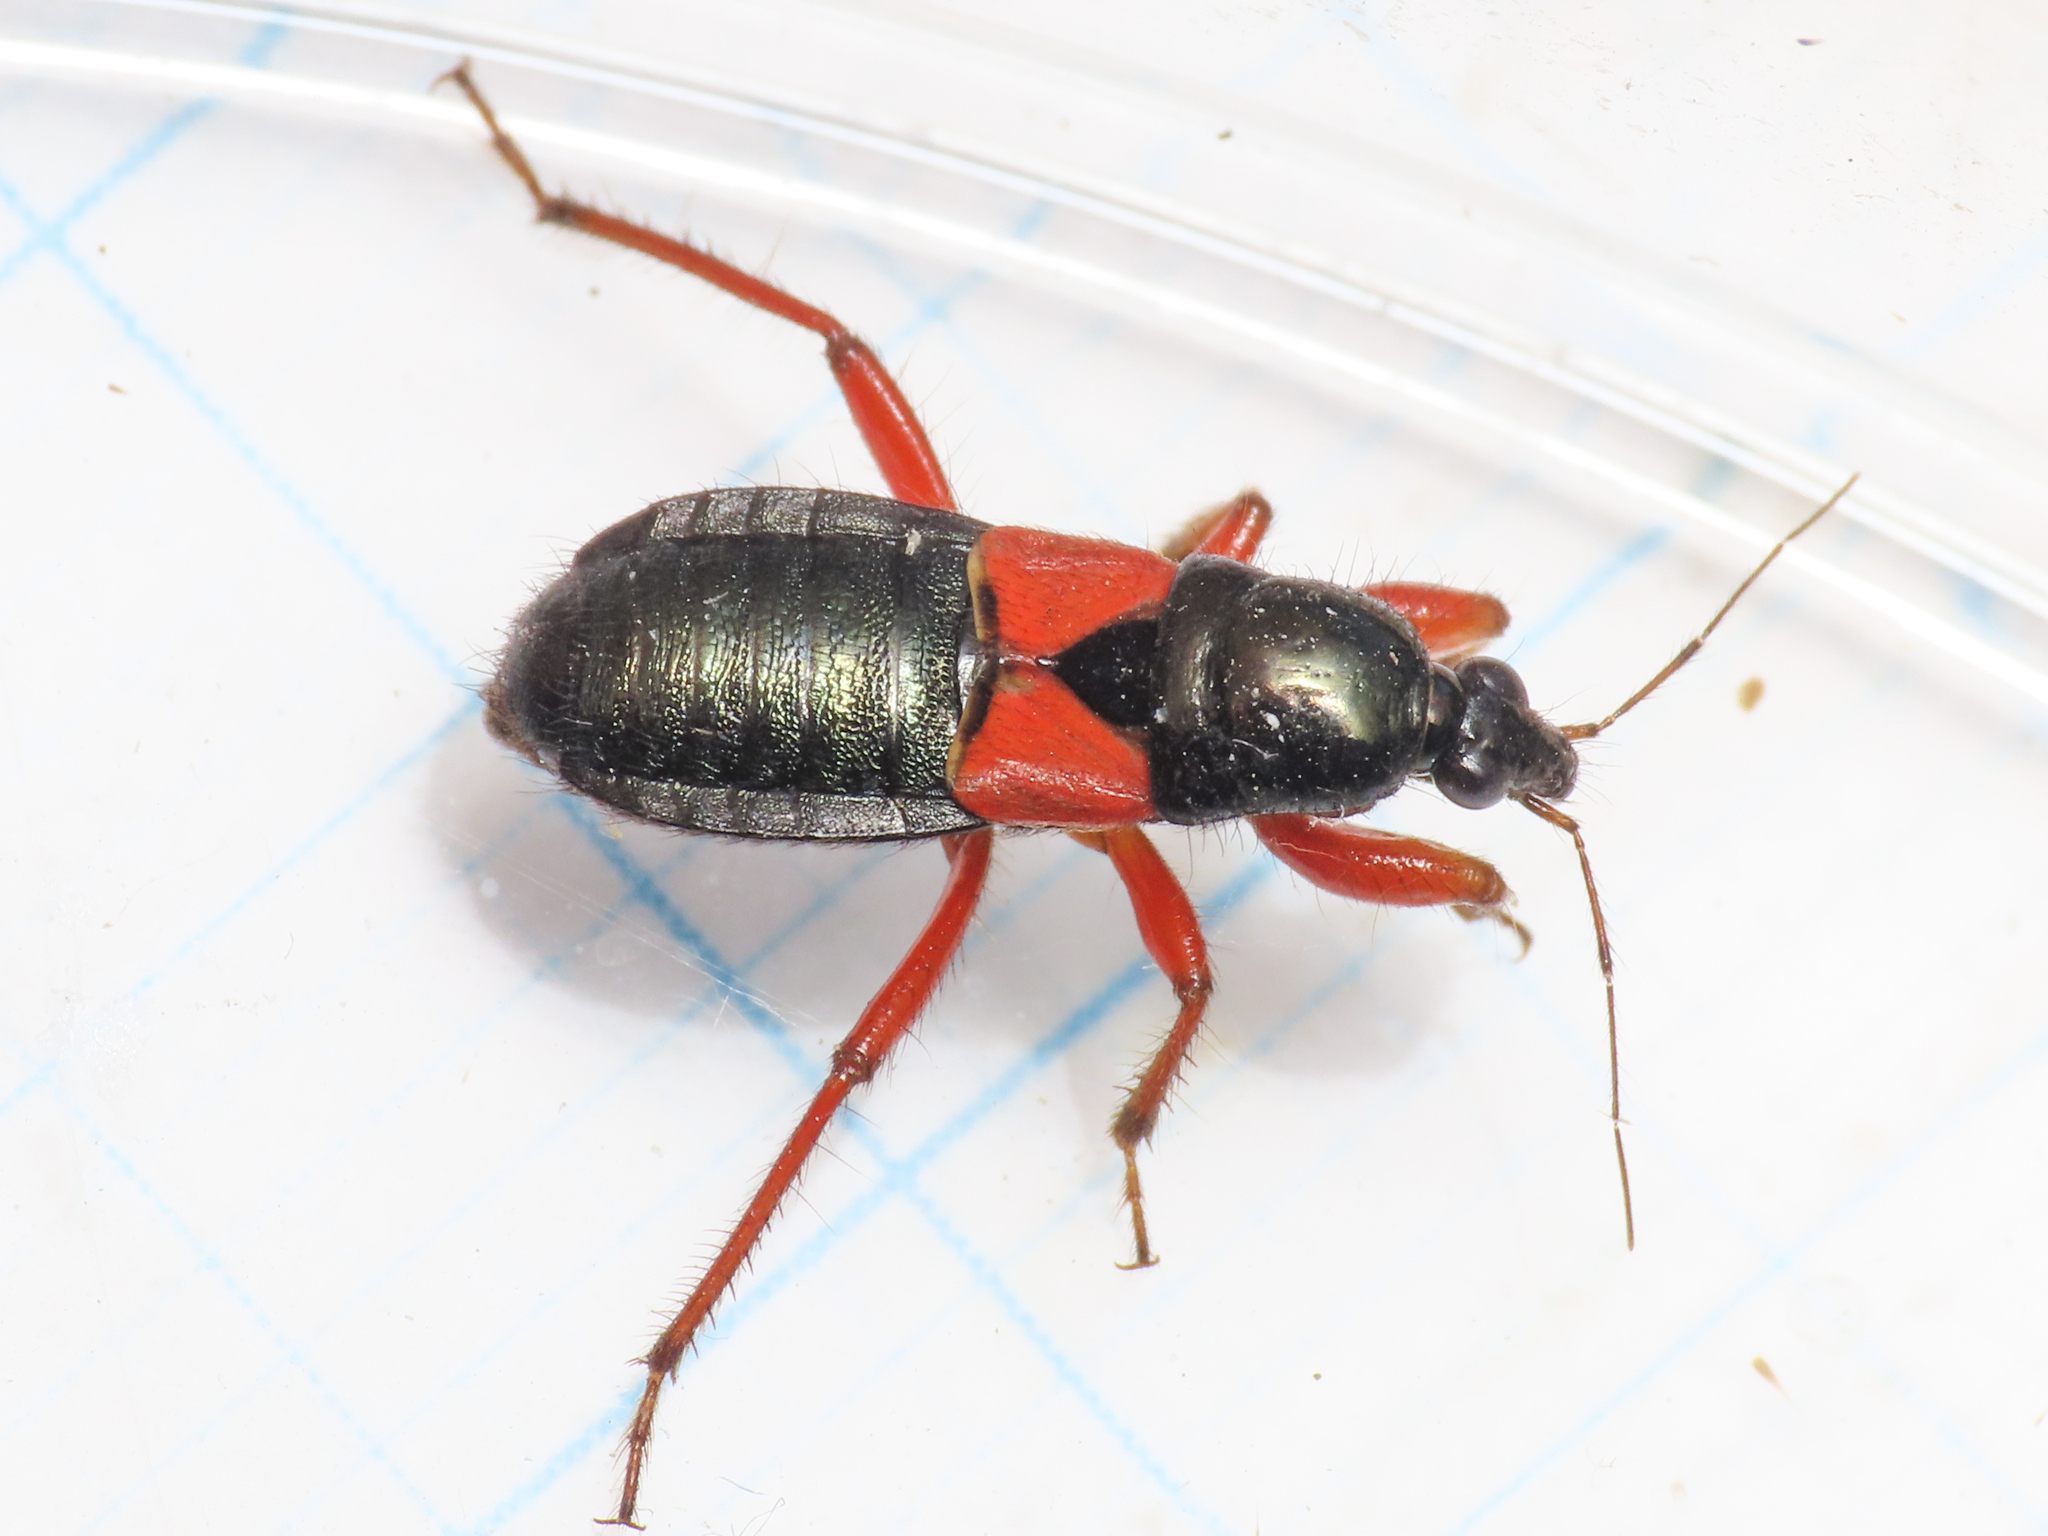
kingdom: Animalia
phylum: Arthropoda
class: Insecta
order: Hemiptera
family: Nabidae
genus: Prostemma
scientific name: Prostemma guttula
